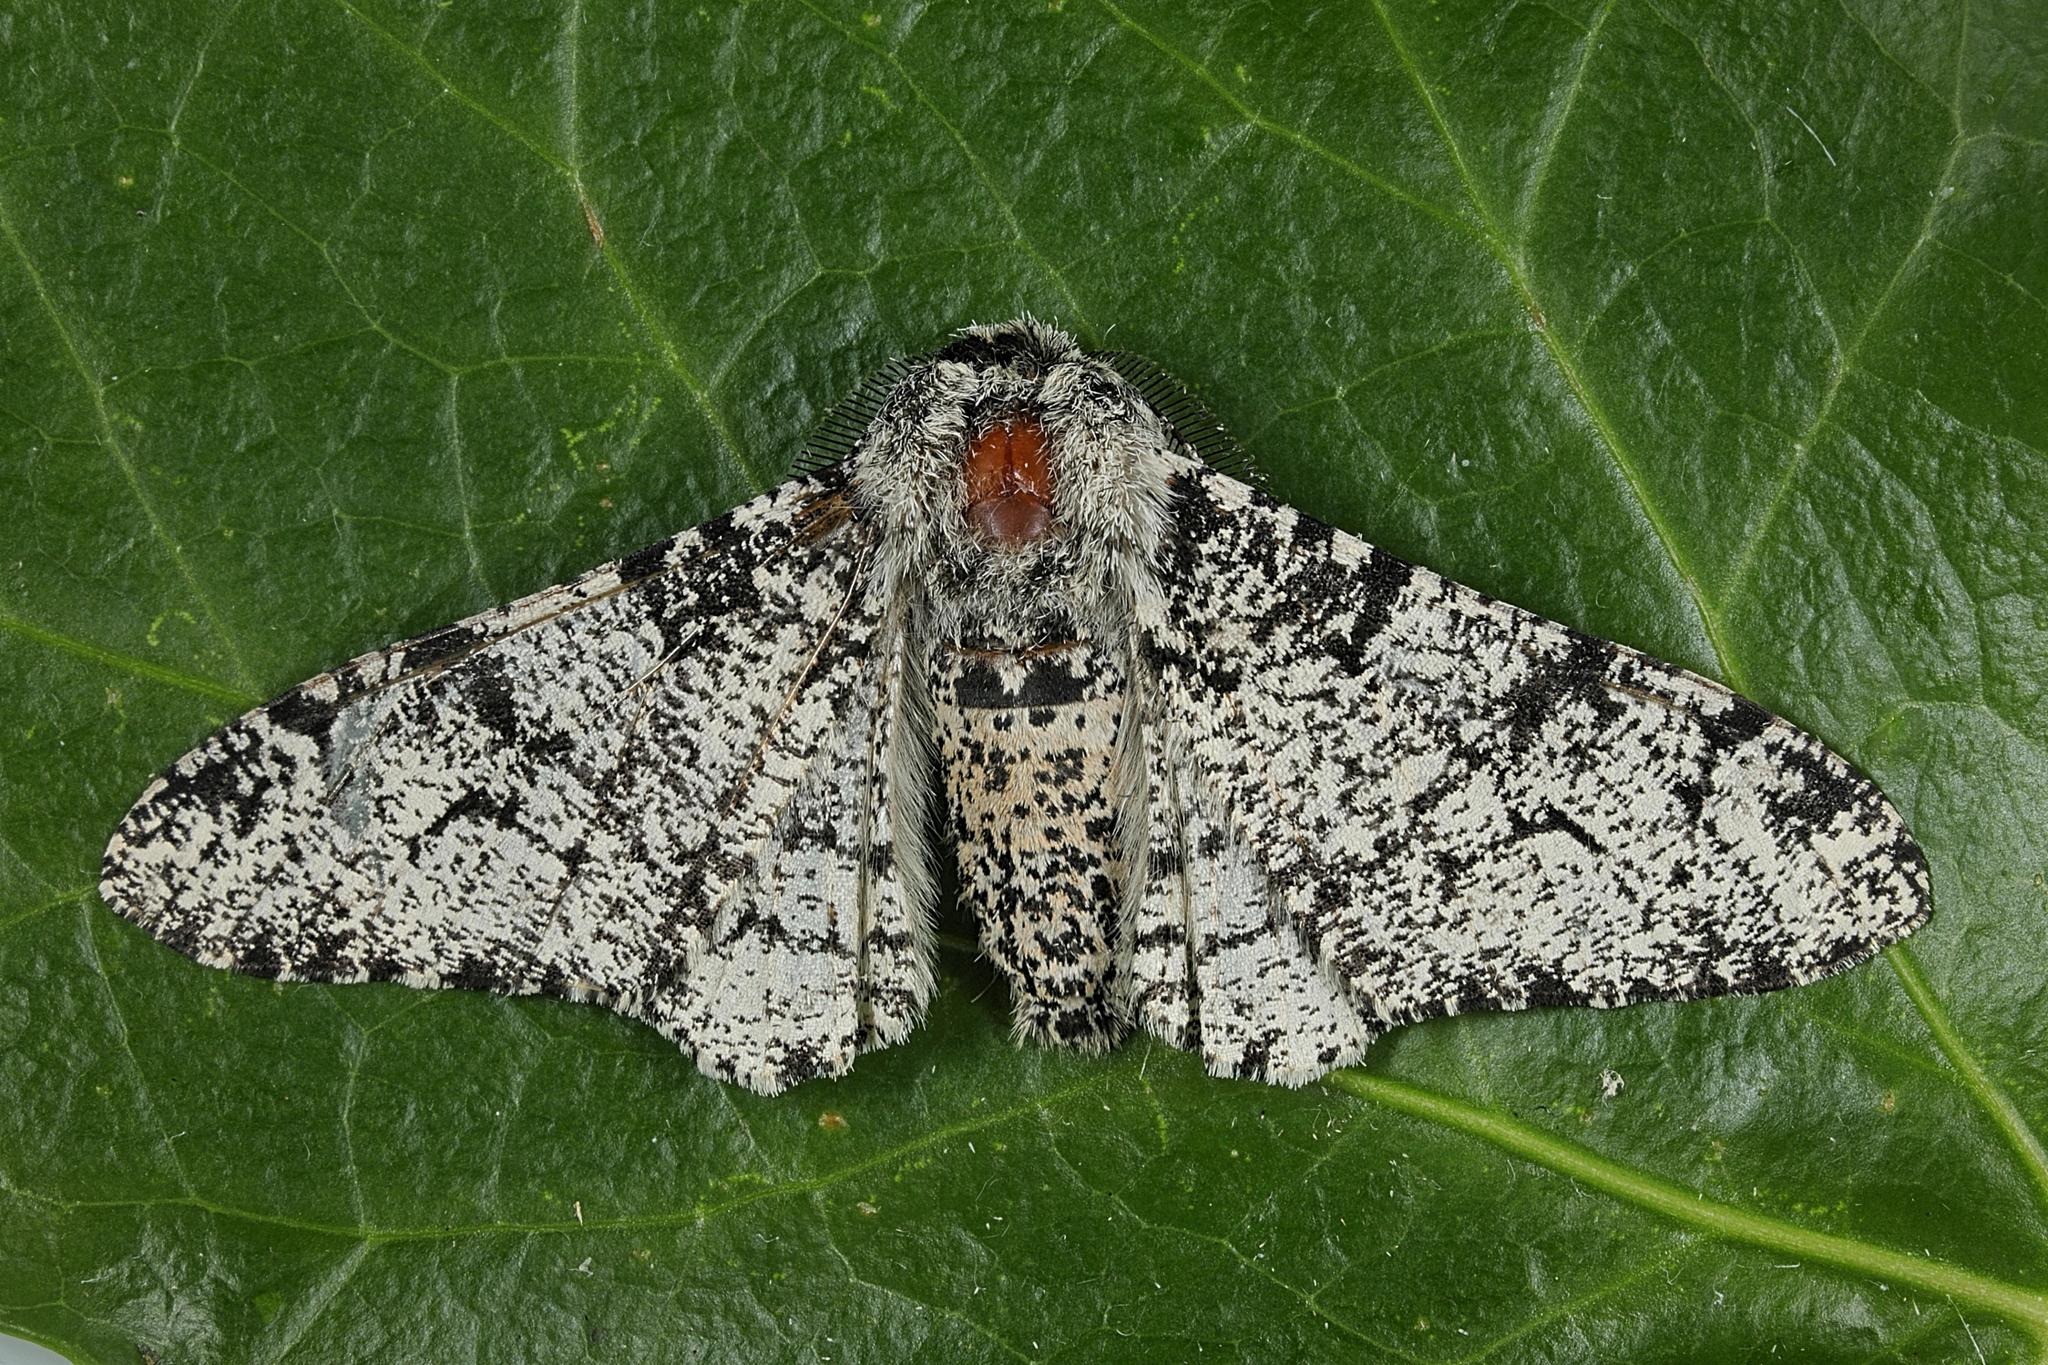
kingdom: Animalia
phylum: Arthropoda
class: Insecta
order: Lepidoptera
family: Geometridae
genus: Biston
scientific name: Biston betularia
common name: Peppered moth
